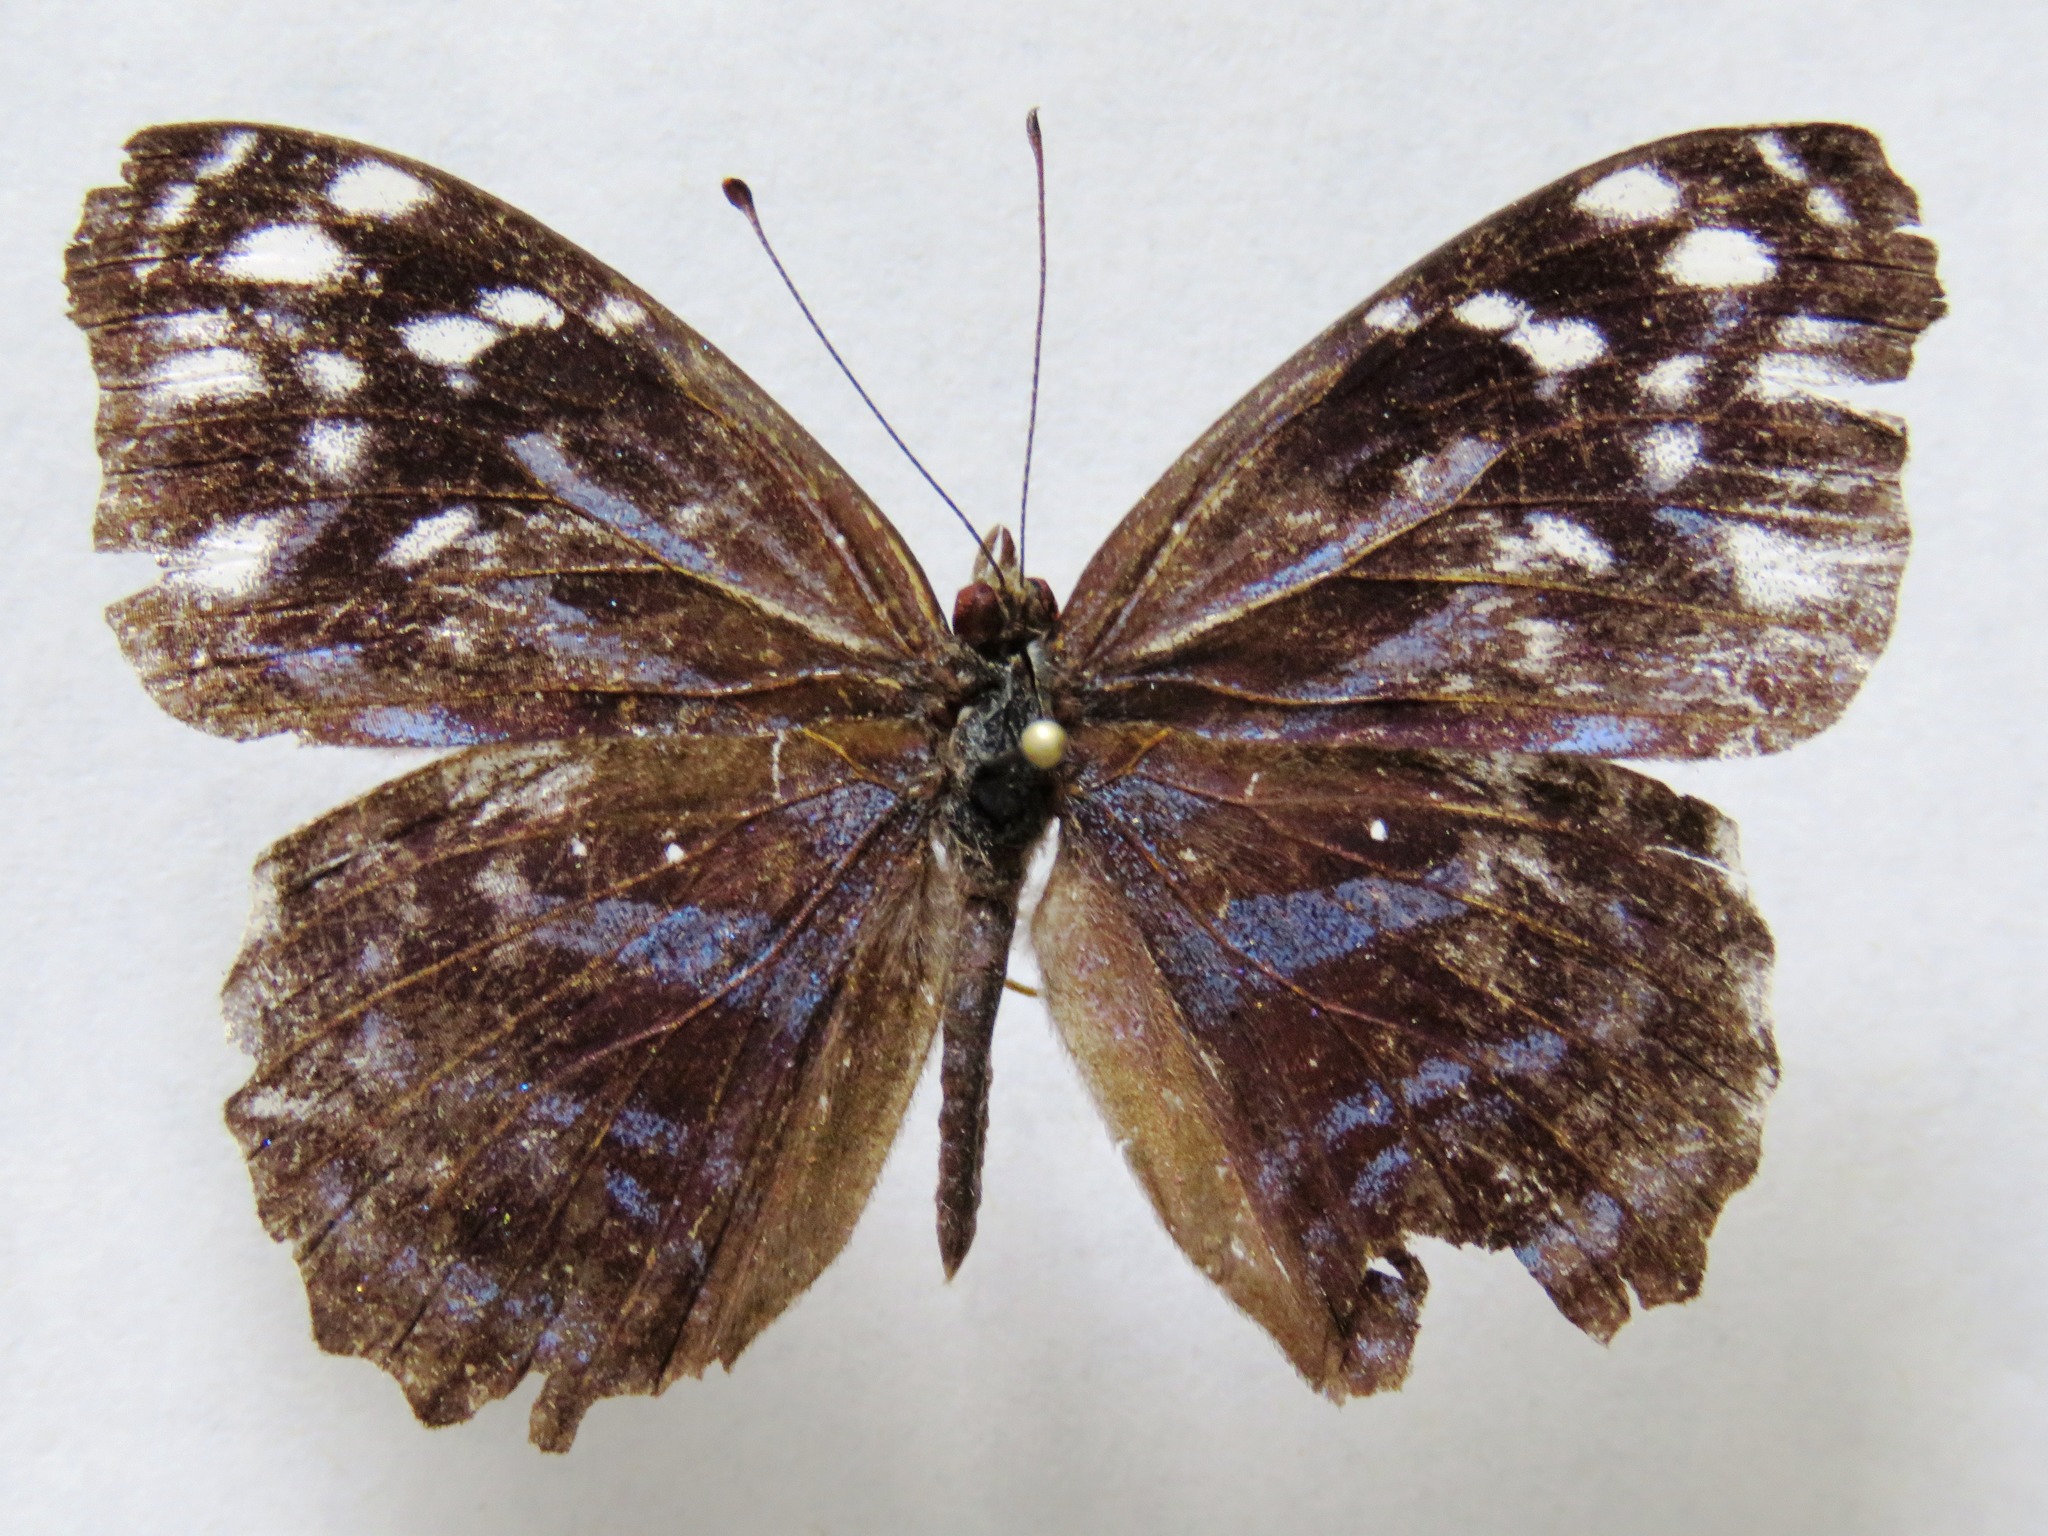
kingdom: Animalia
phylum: Arthropoda
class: Insecta
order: Lepidoptera
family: Nymphalidae
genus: Myscelia
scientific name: Myscelia ethusa
